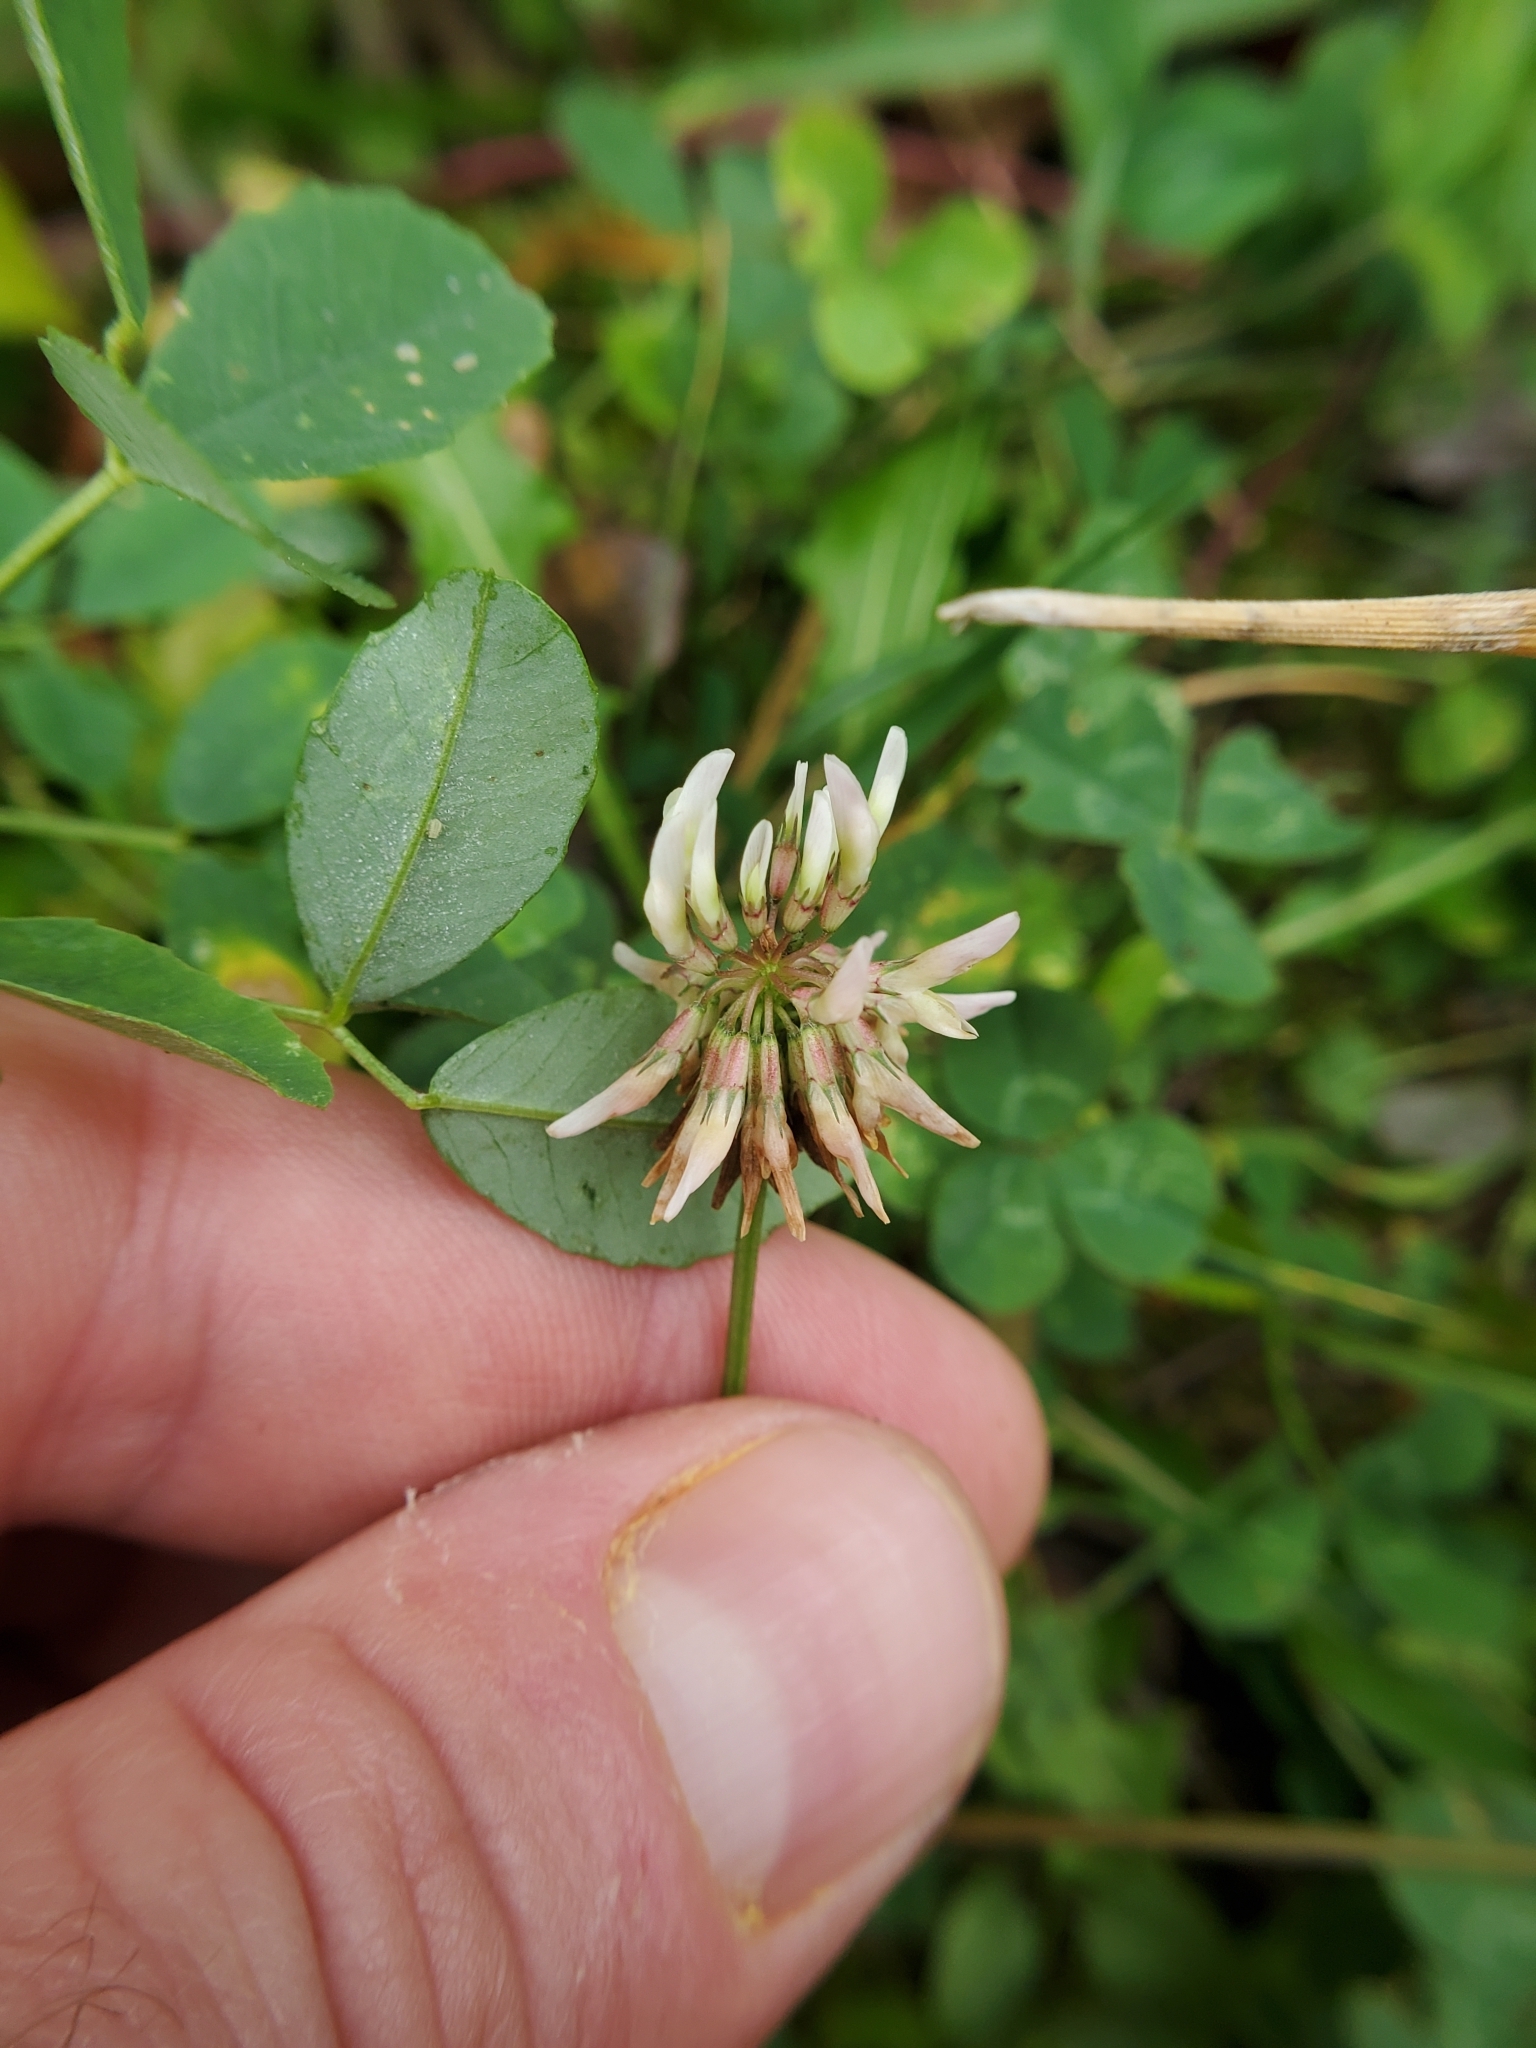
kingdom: Plantae
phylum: Tracheophyta
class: Magnoliopsida
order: Fabales
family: Fabaceae
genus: Trifolium
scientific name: Trifolium repens
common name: White clover
